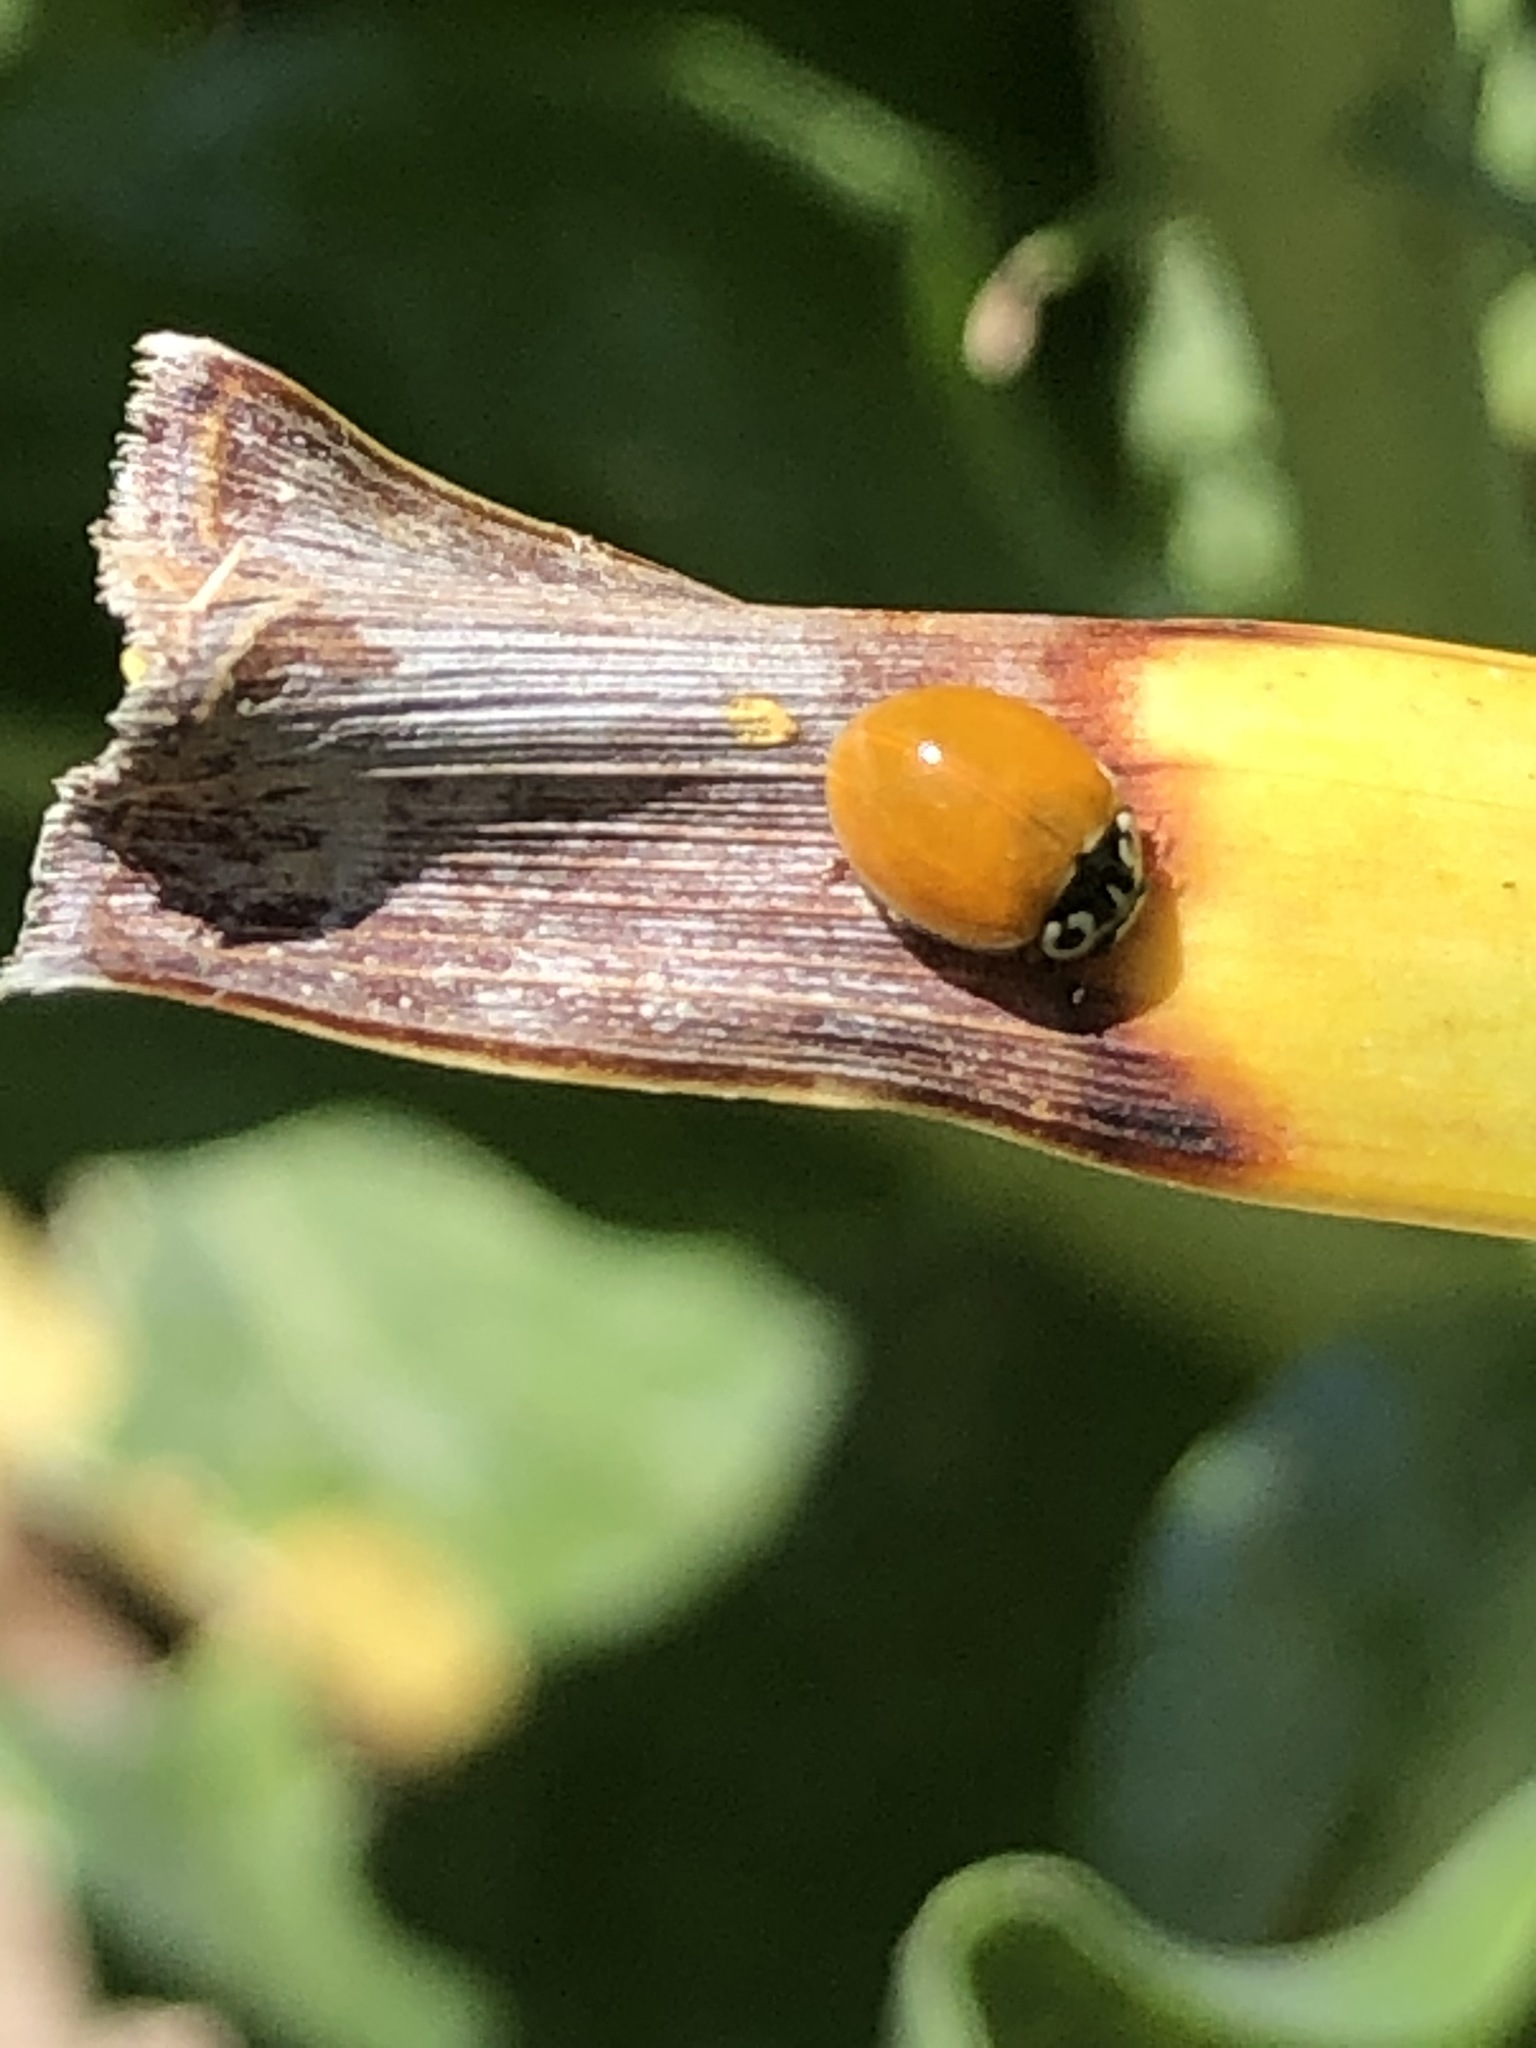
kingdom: Animalia
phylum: Arthropoda
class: Insecta
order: Coleoptera
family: Coccinellidae
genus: Cycloneda
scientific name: Cycloneda polita
